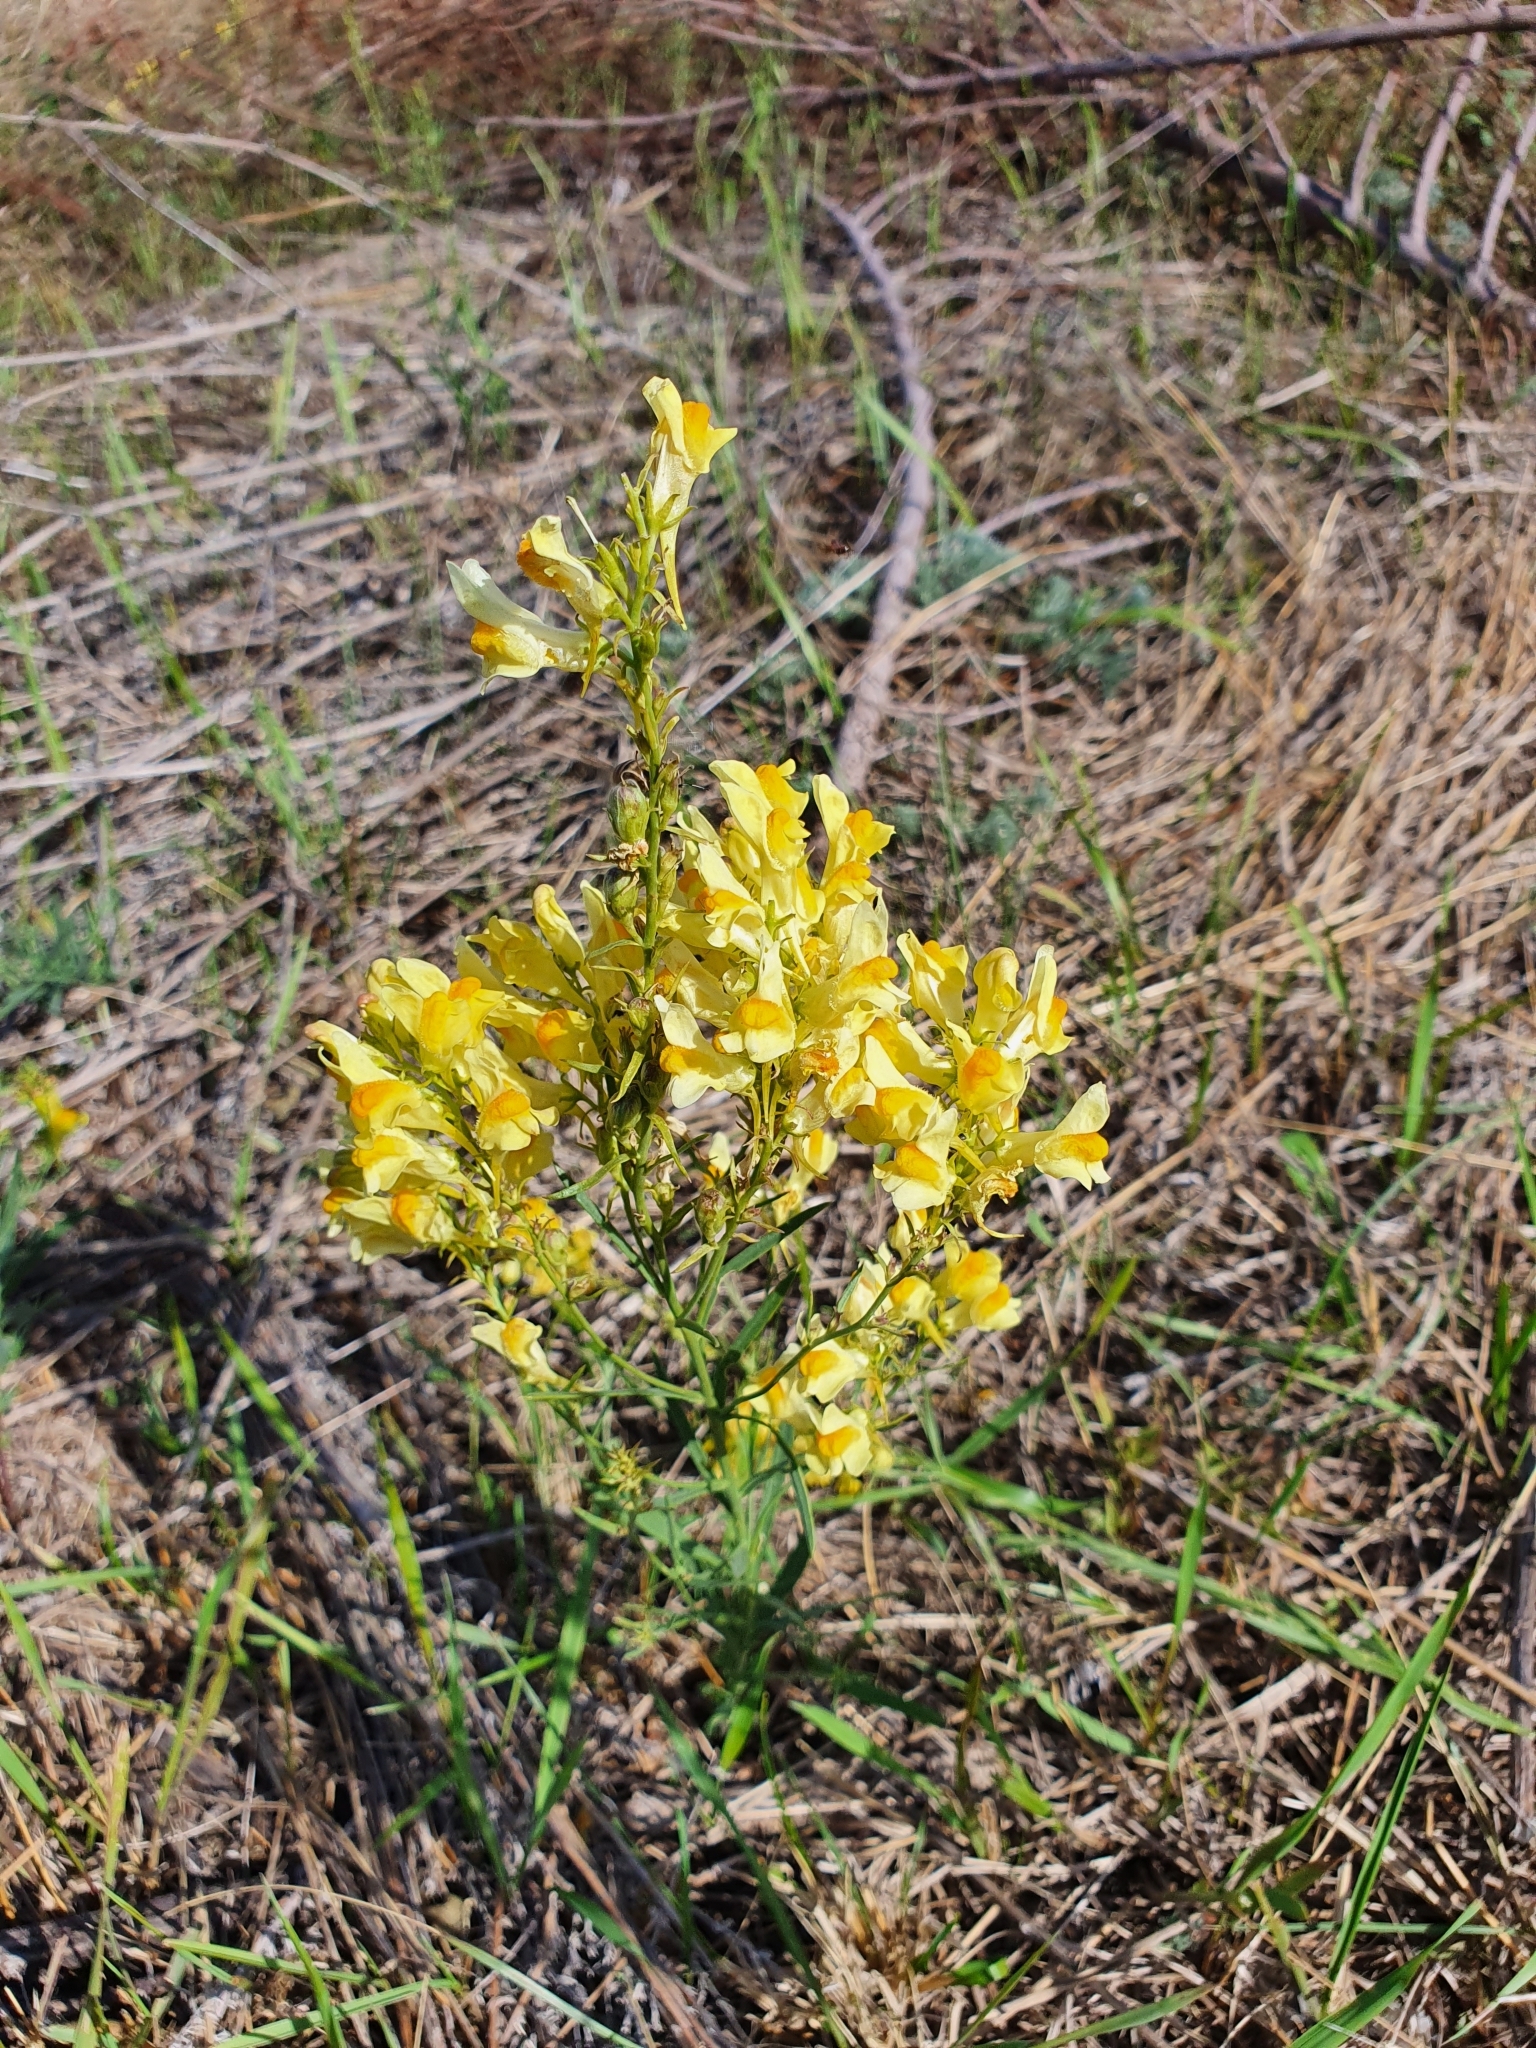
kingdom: Plantae
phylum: Tracheophyta
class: Magnoliopsida
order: Lamiales
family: Plantaginaceae
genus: Linaria
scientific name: Linaria vulgaris
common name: Butter and eggs
